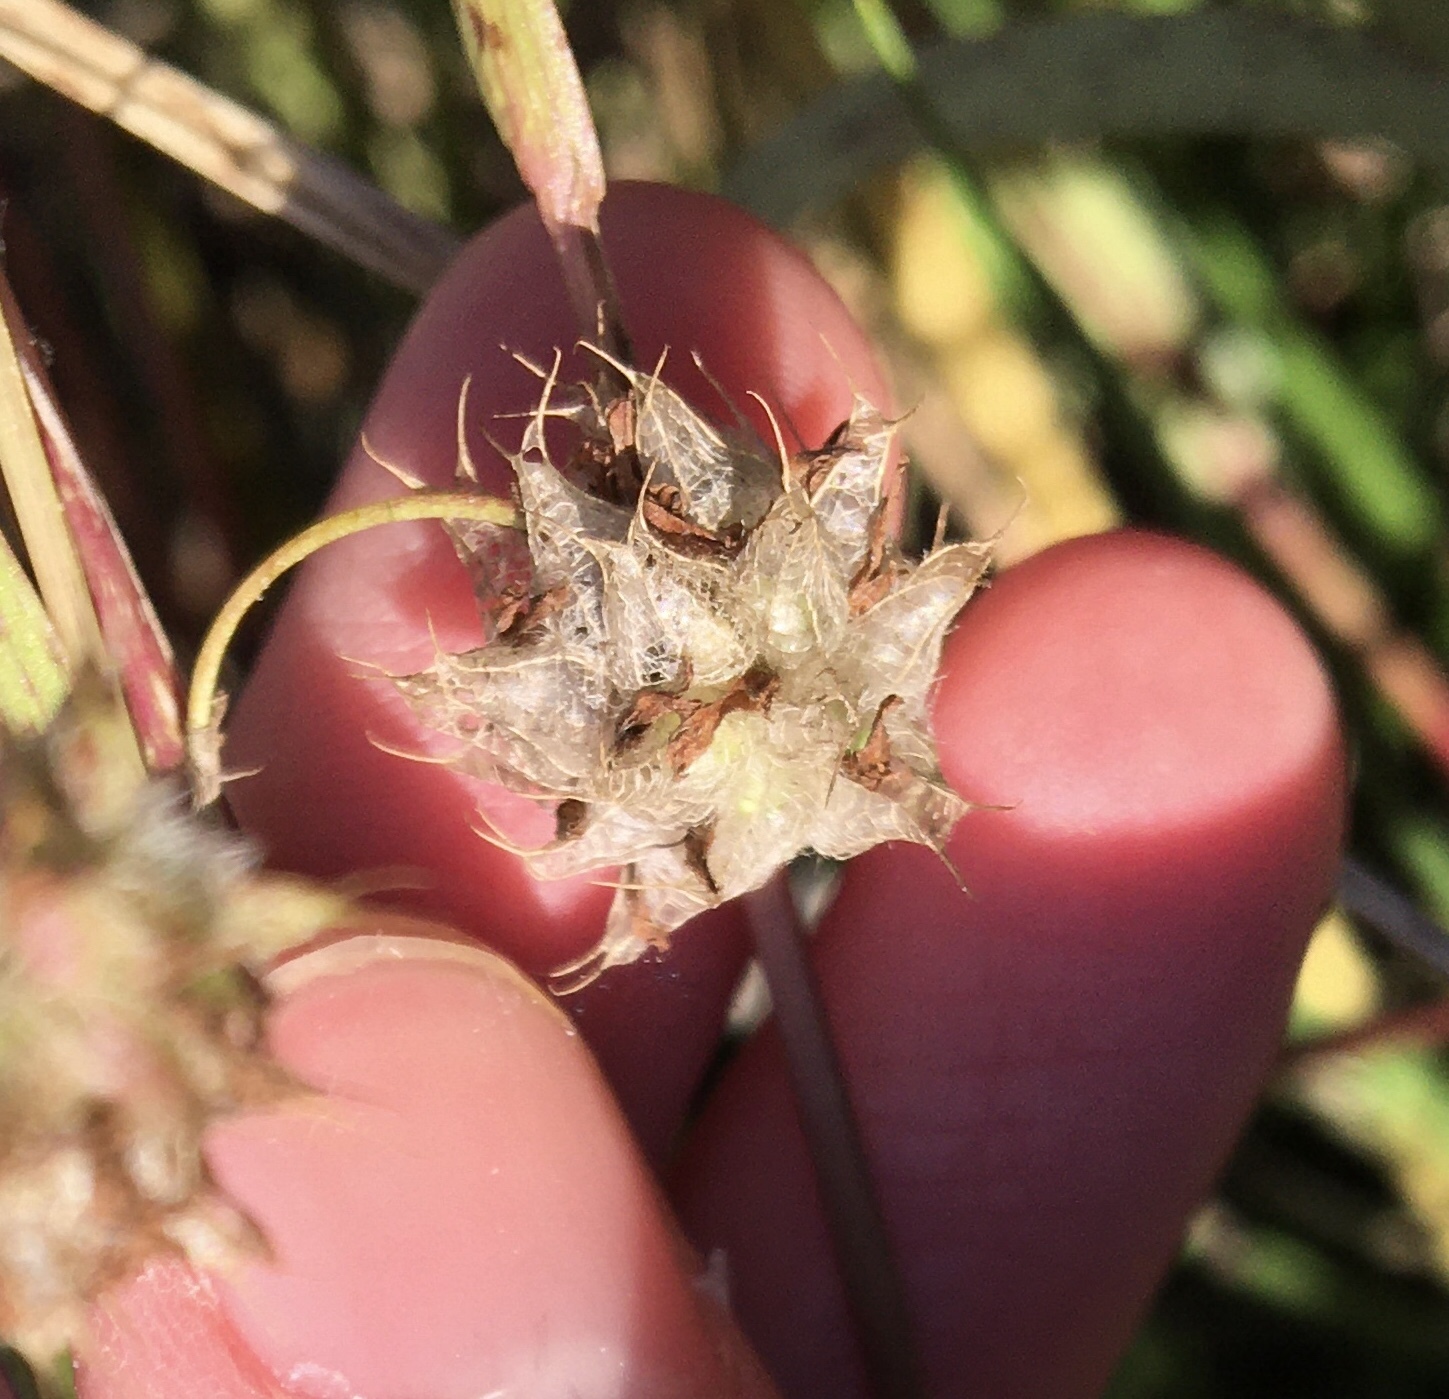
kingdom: Plantae
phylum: Tracheophyta
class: Magnoliopsida
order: Fabales
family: Fabaceae
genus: Trifolium
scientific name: Trifolium resupinatum
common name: Reversed clover
